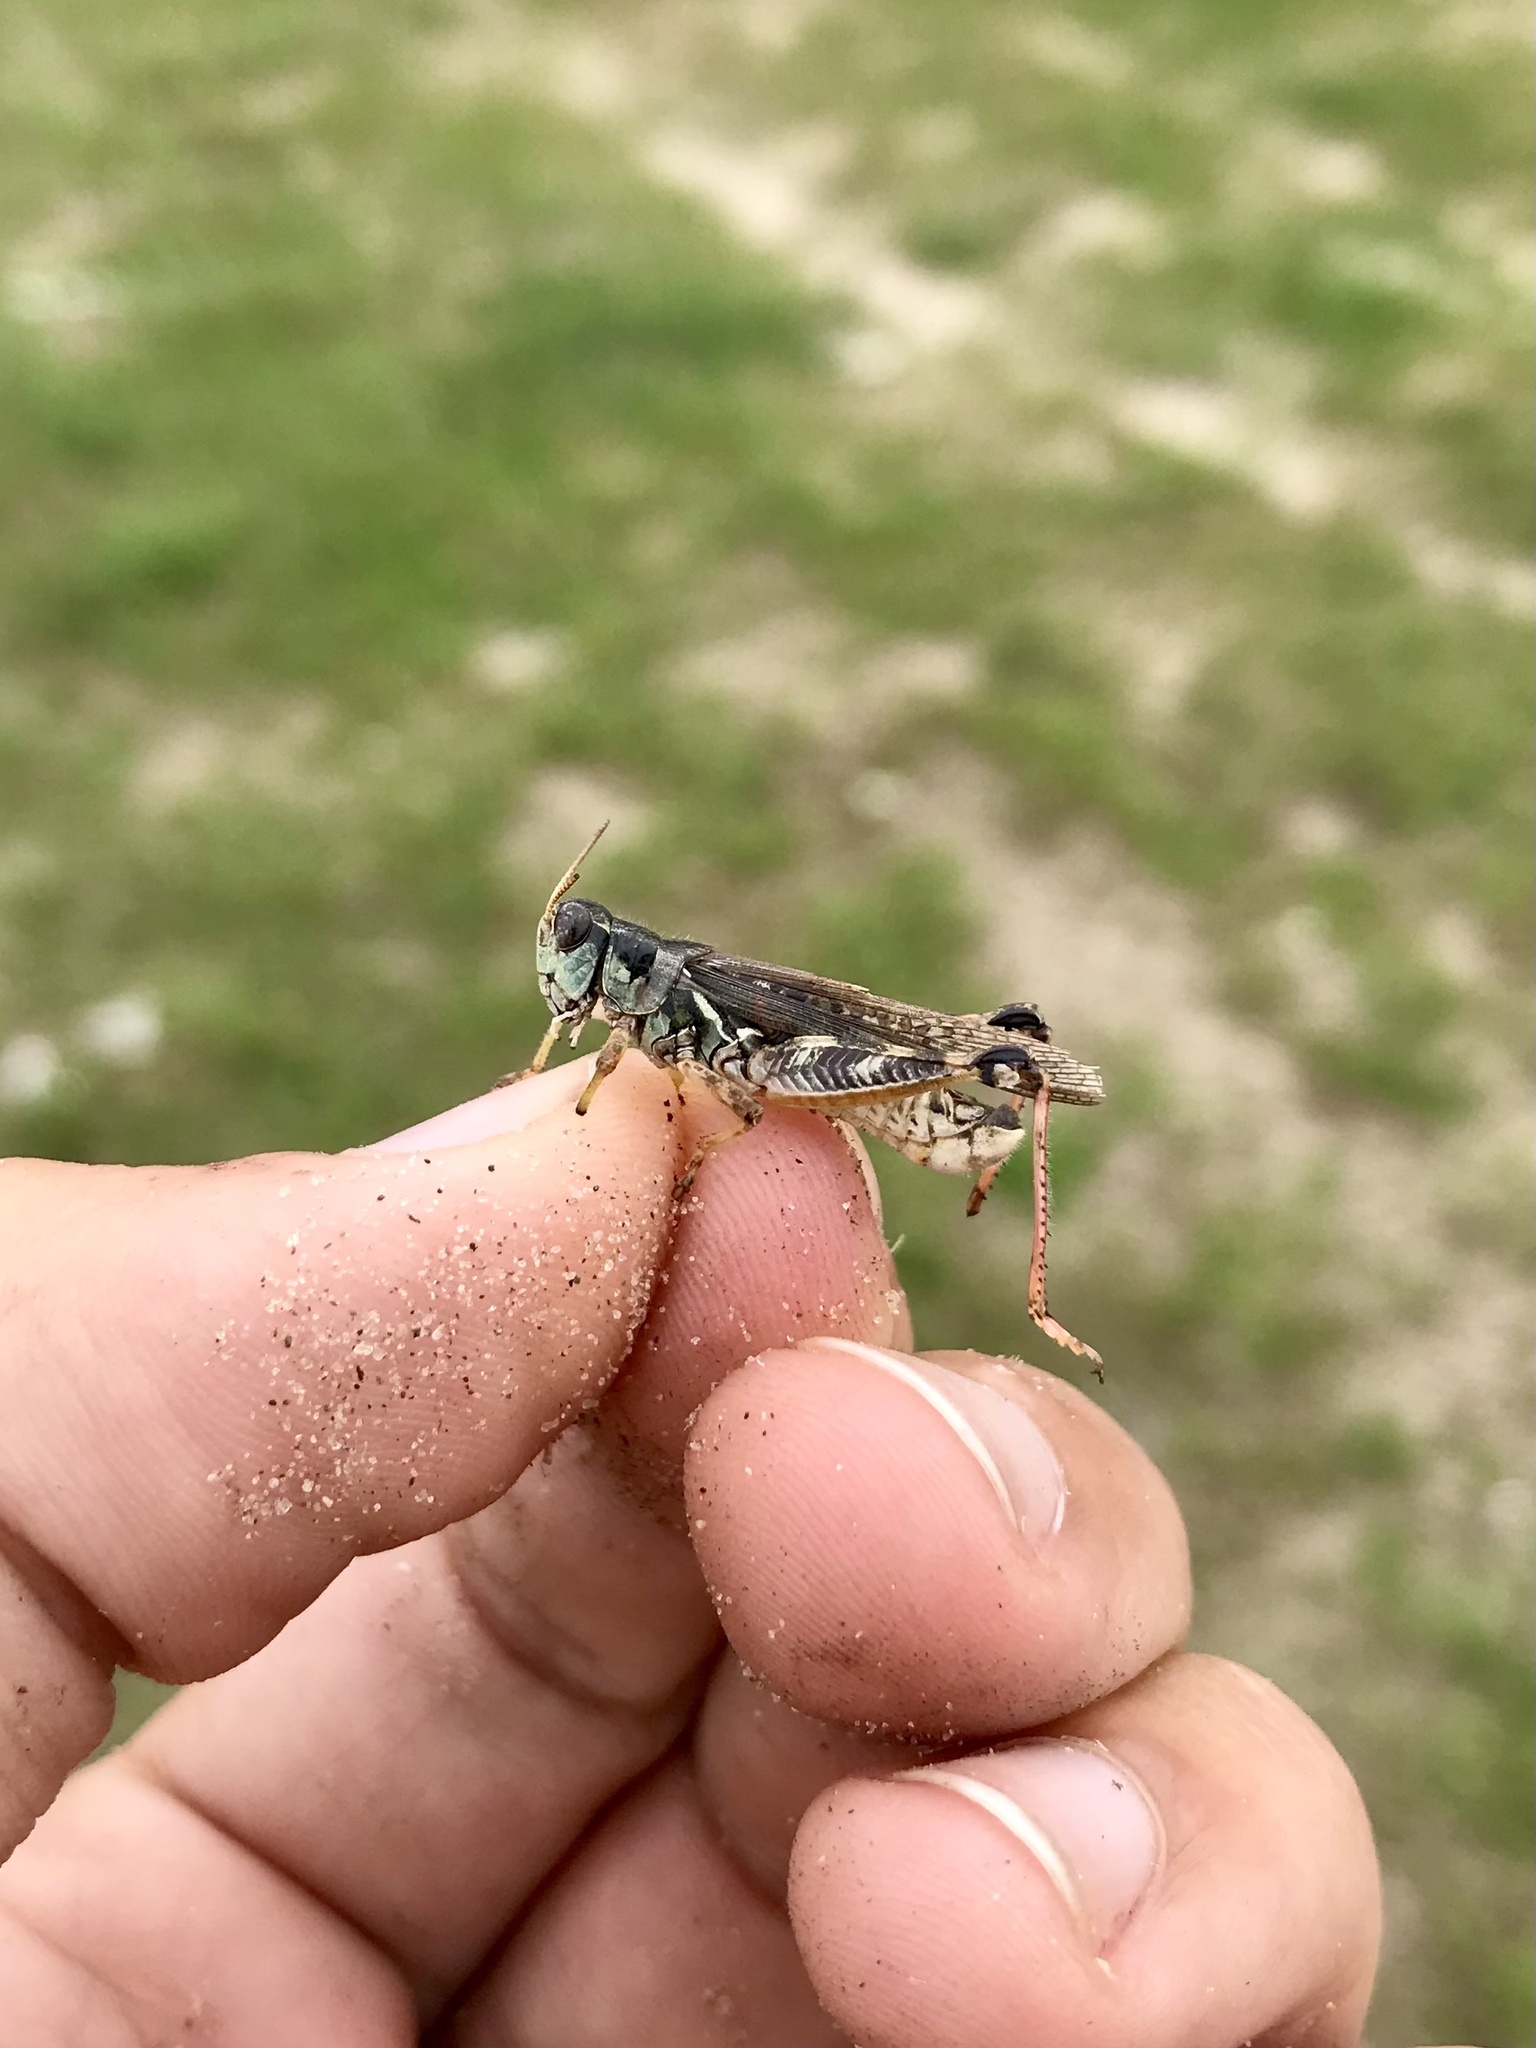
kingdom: Animalia
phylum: Arthropoda
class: Insecta
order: Orthoptera
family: Acrididae
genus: Melanoplus
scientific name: Melanoplus sanguinipes
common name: Migratory grasshopper
